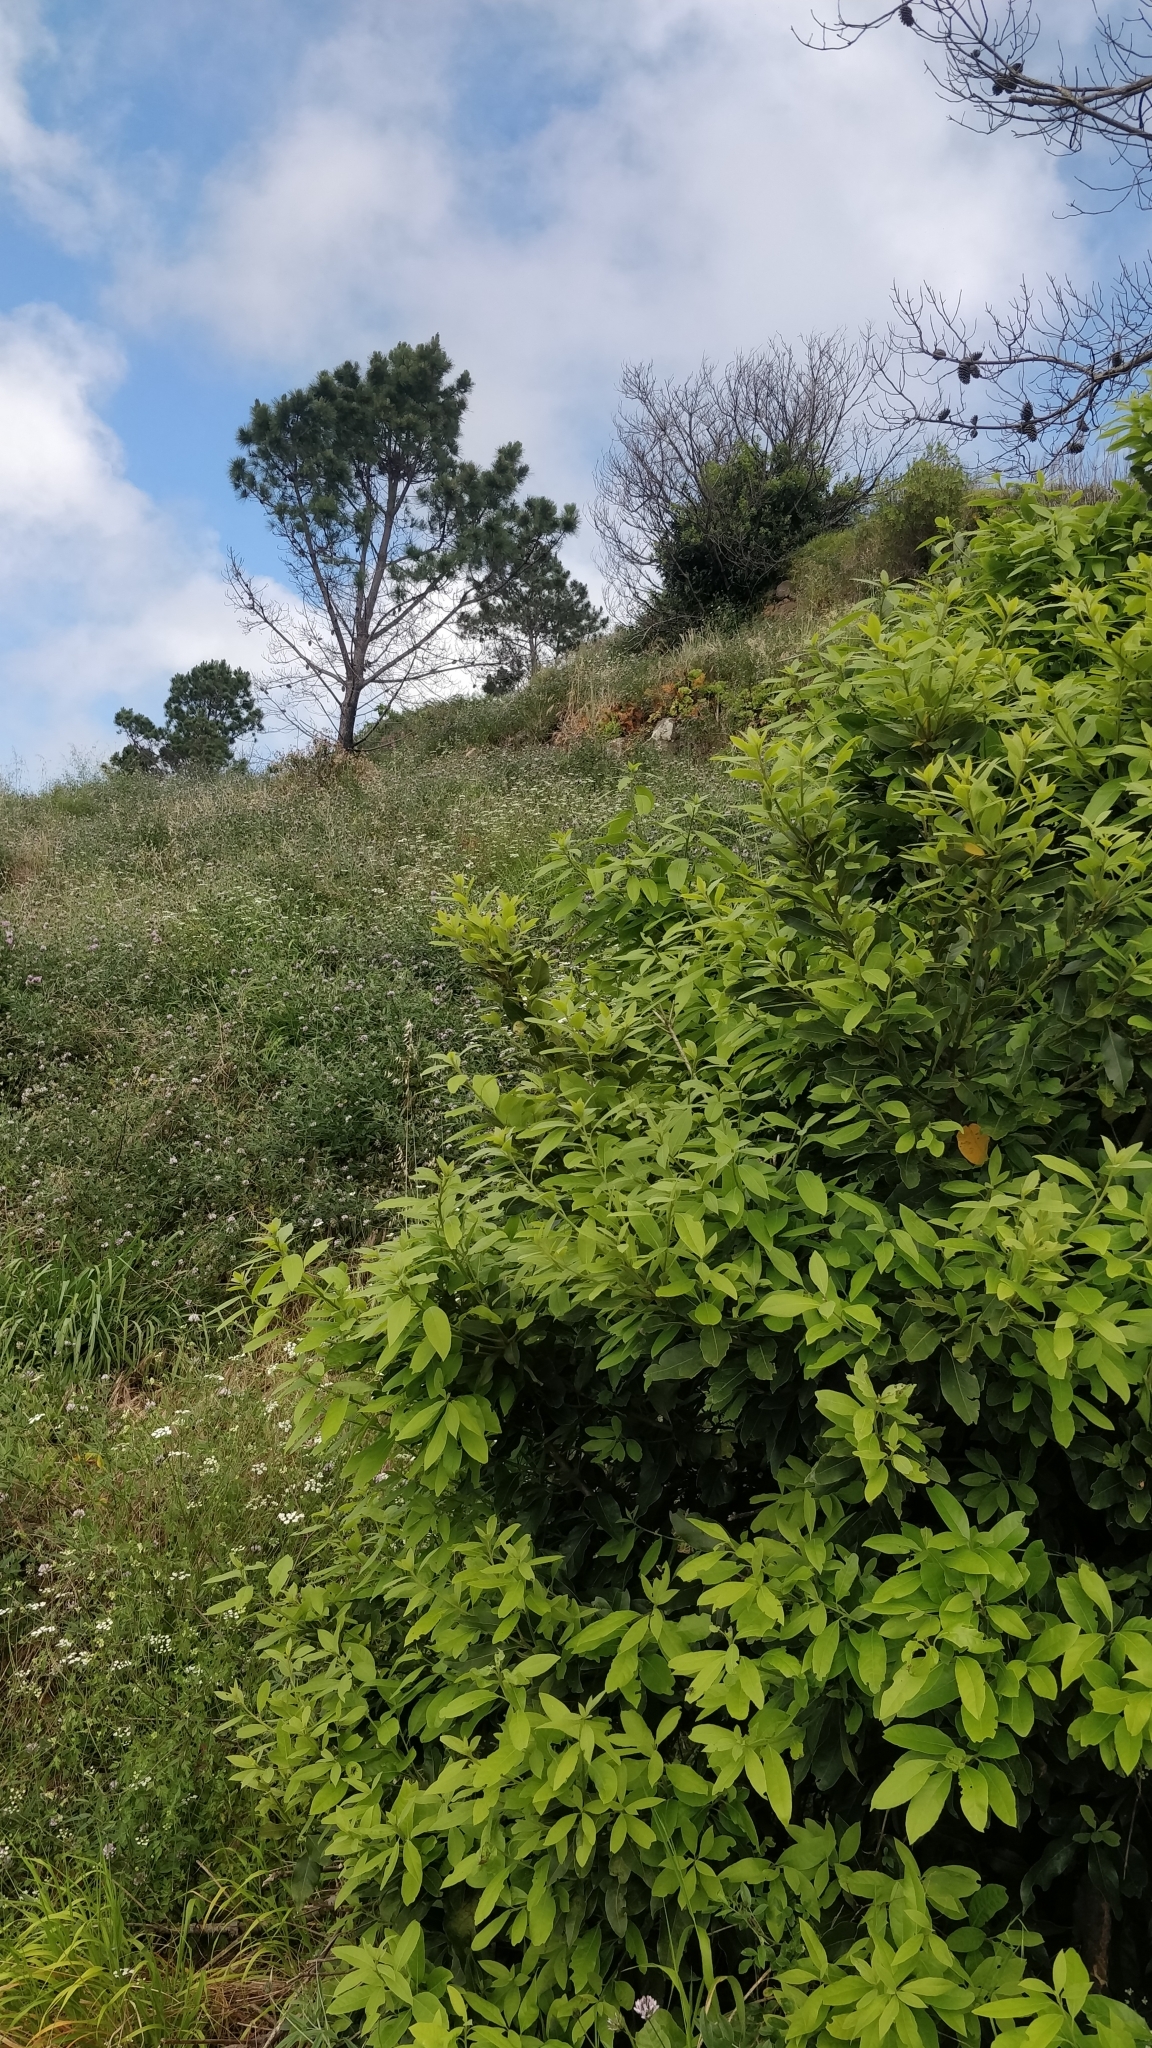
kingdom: Plantae
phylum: Tracheophyta
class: Magnoliopsida
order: Laurales
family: Lauraceae
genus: Laurus
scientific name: Laurus novocanariensis
